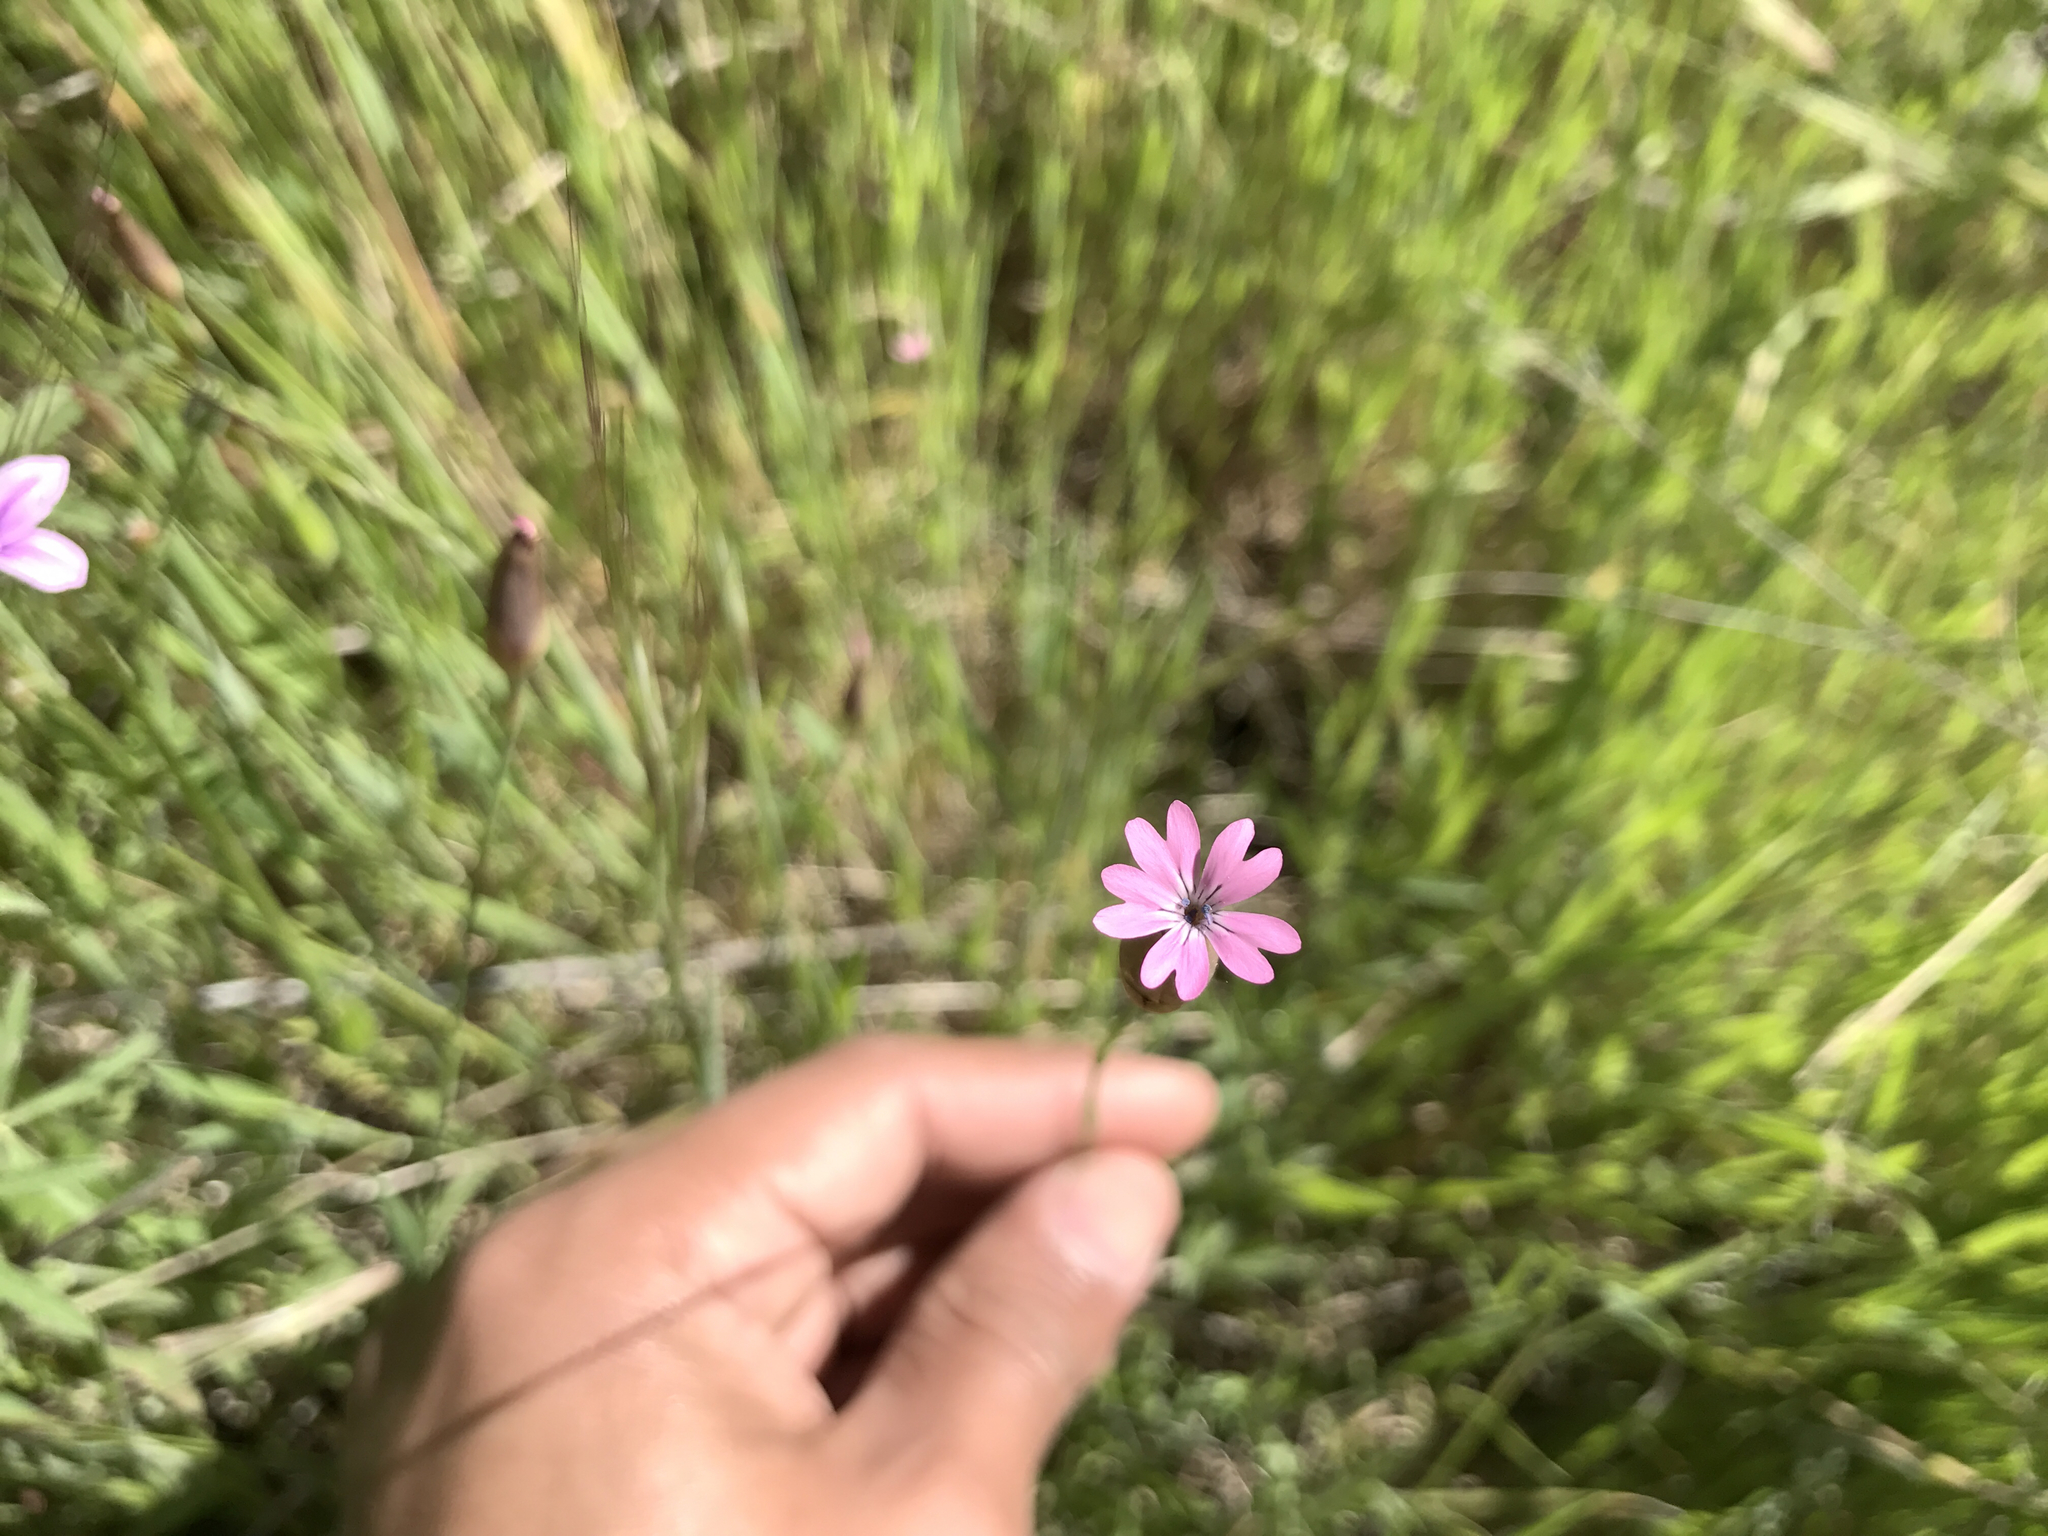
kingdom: Plantae
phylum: Tracheophyta
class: Magnoliopsida
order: Caryophyllales
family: Caryophyllaceae
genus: Petrorhagia
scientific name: Petrorhagia dubia
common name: Hairypink
